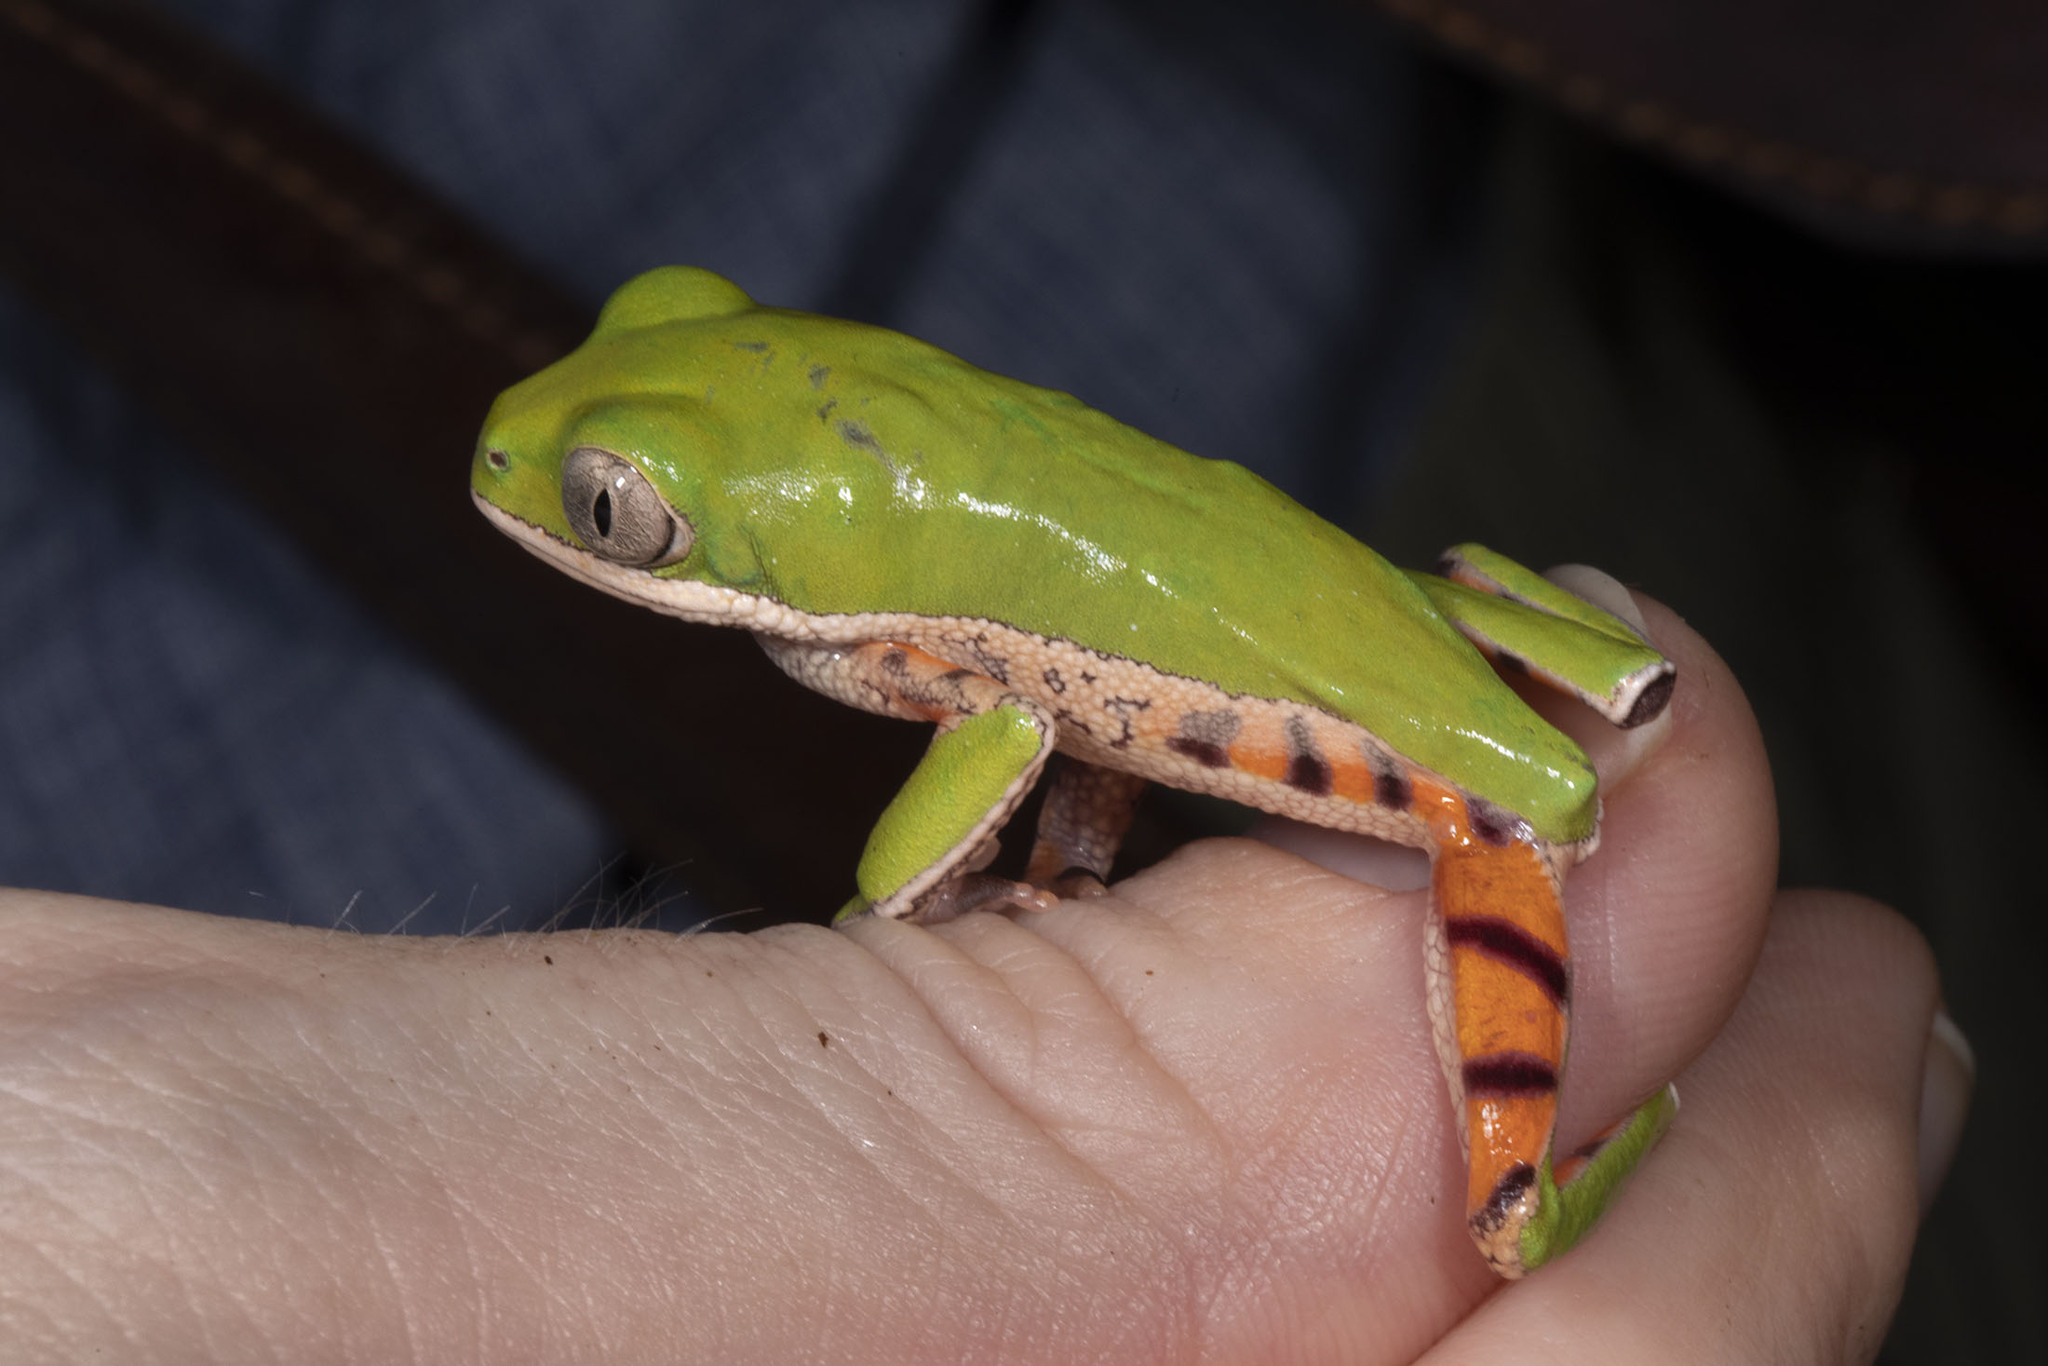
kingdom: Animalia
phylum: Chordata
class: Amphibia
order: Anura
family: Phyllomedusidae
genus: Pithecopus
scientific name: Pithecopus hypochondrialis
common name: Orange-legged leaf frog
